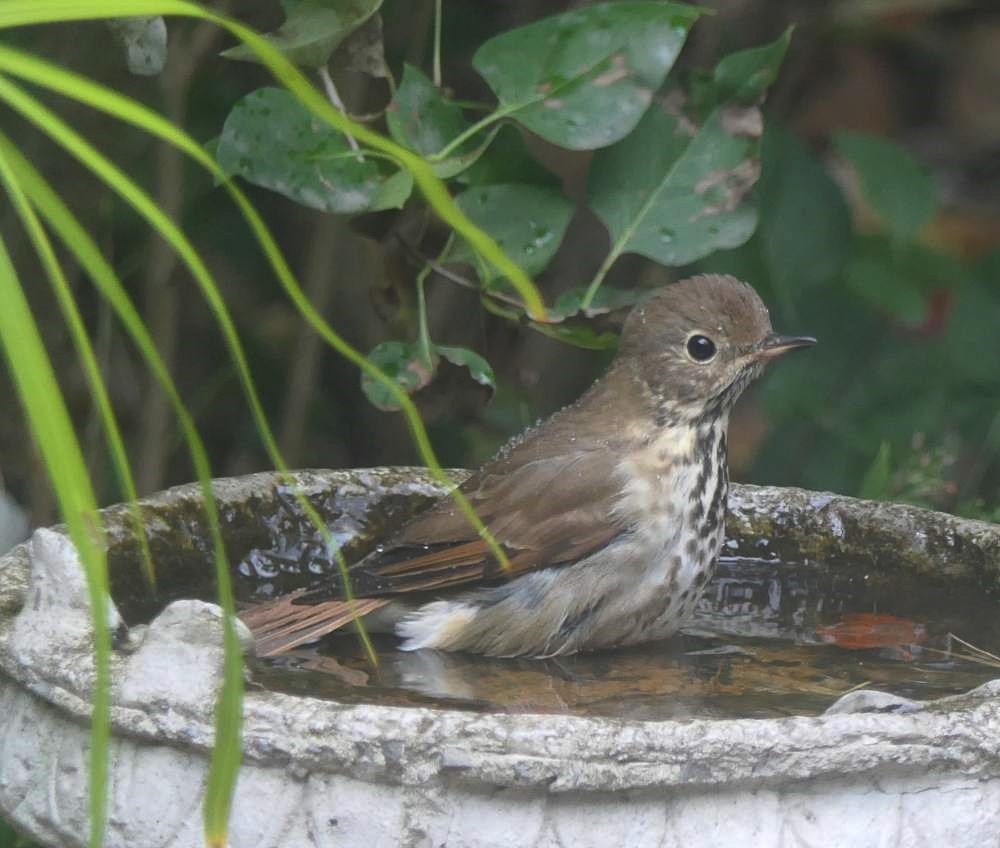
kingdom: Animalia
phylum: Chordata
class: Aves
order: Passeriformes
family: Turdidae
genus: Catharus
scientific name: Catharus guttatus
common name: Hermit thrush
